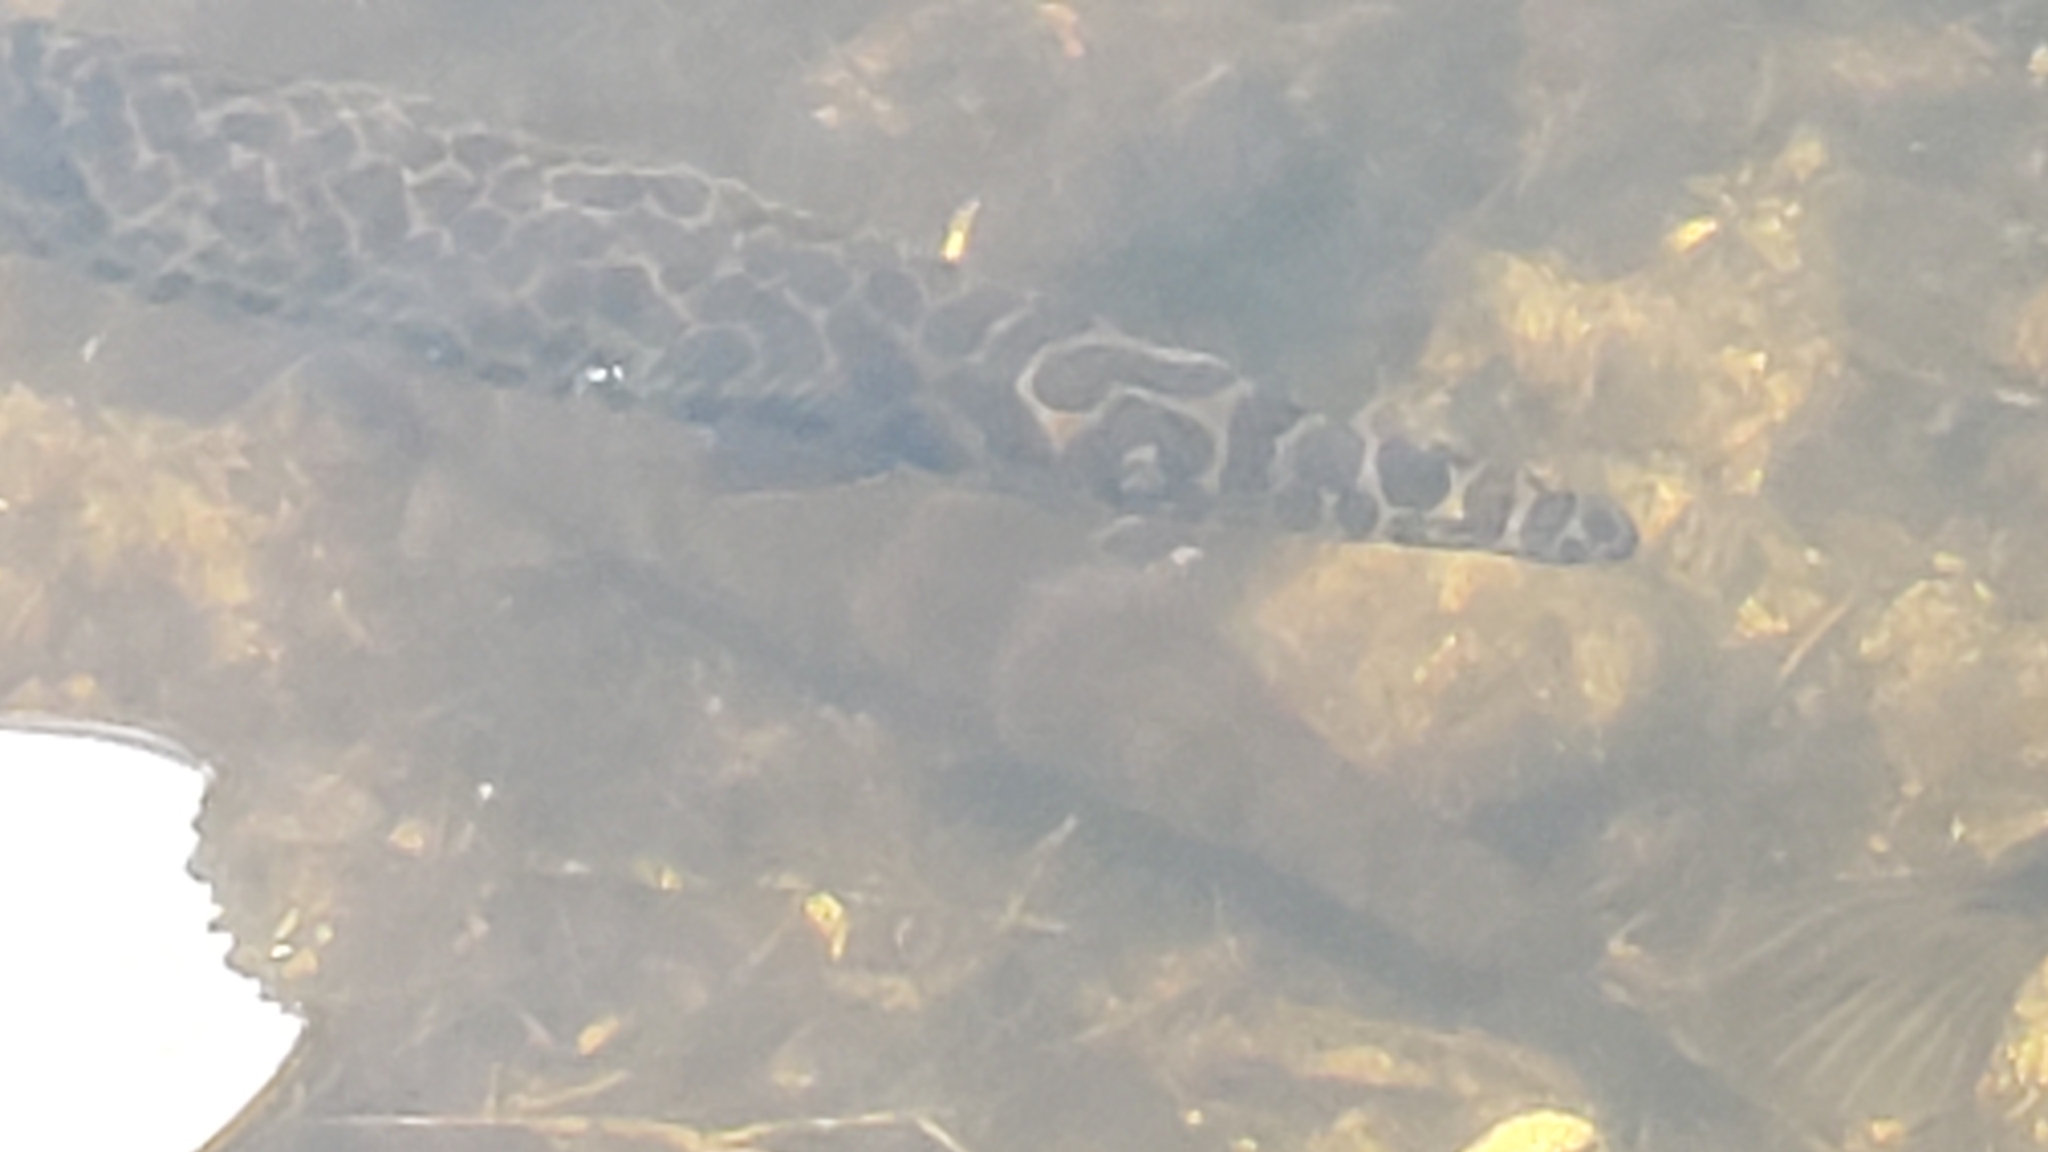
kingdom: Animalia
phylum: Chordata
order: Lepisosteiformes
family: Lepisosteidae
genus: Lepisosteus
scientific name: Lepisosteus platyrhincus
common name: Florida gar
